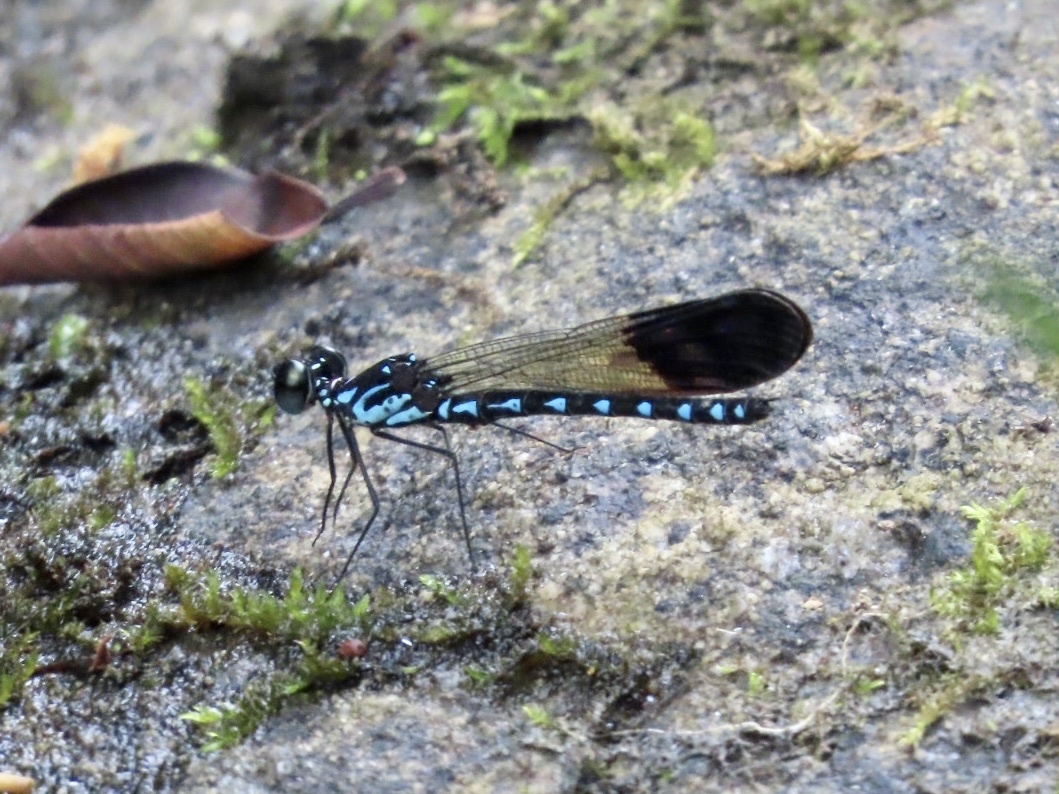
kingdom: Animalia
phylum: Arthropoda
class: Insecta
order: Odonata
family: Chlorocyphidae
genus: Heliocypha
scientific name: Heliocypha perforata
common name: Common blue jewel
